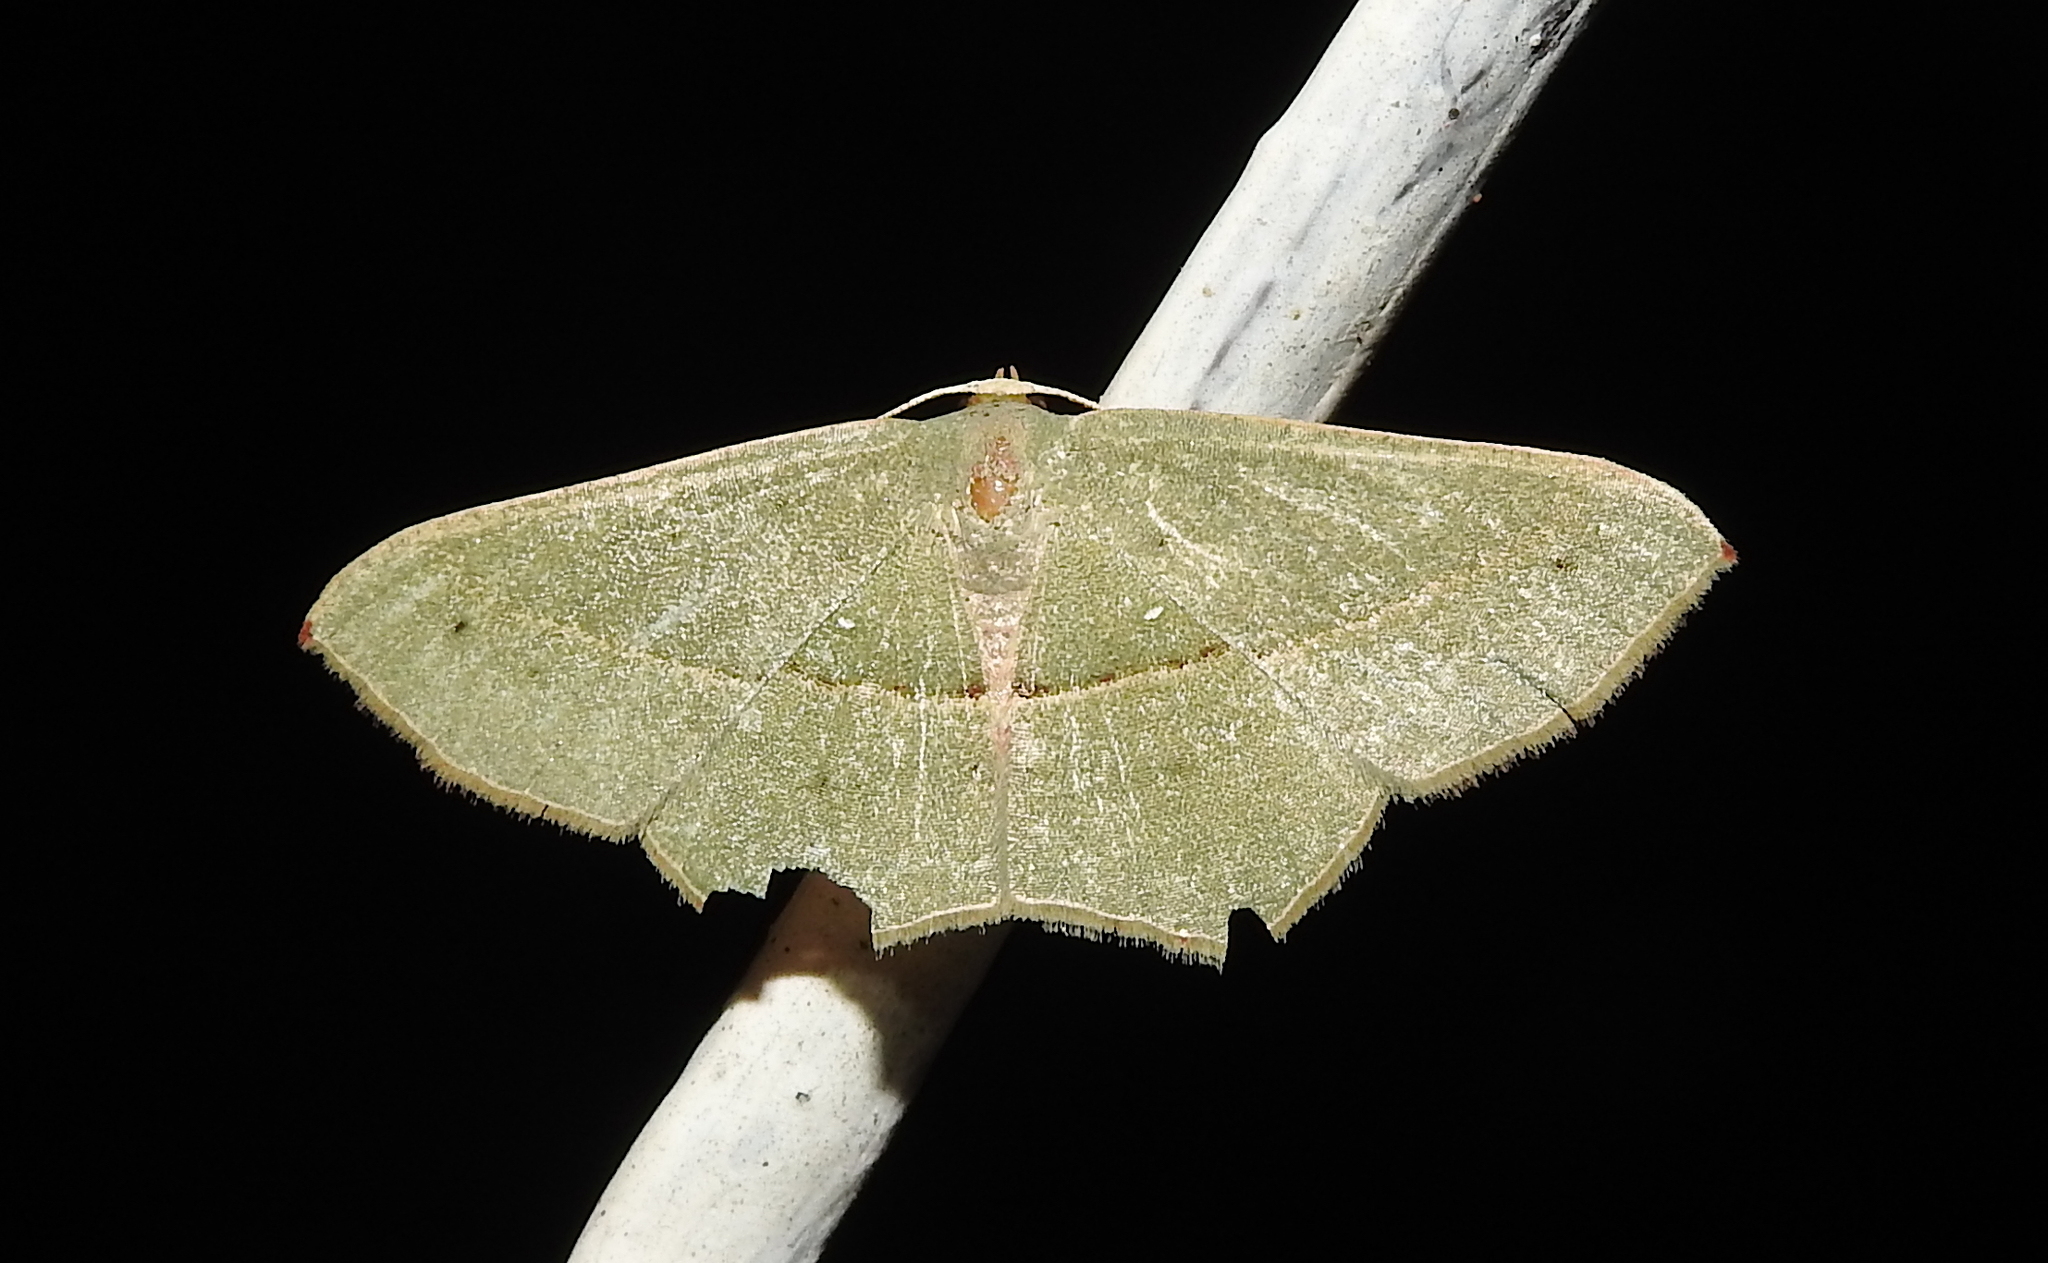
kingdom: Animalia
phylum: Arthropoda
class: Insecta
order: Lepidoptera
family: Geometridae
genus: Traminda
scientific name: Traminda mundissima
